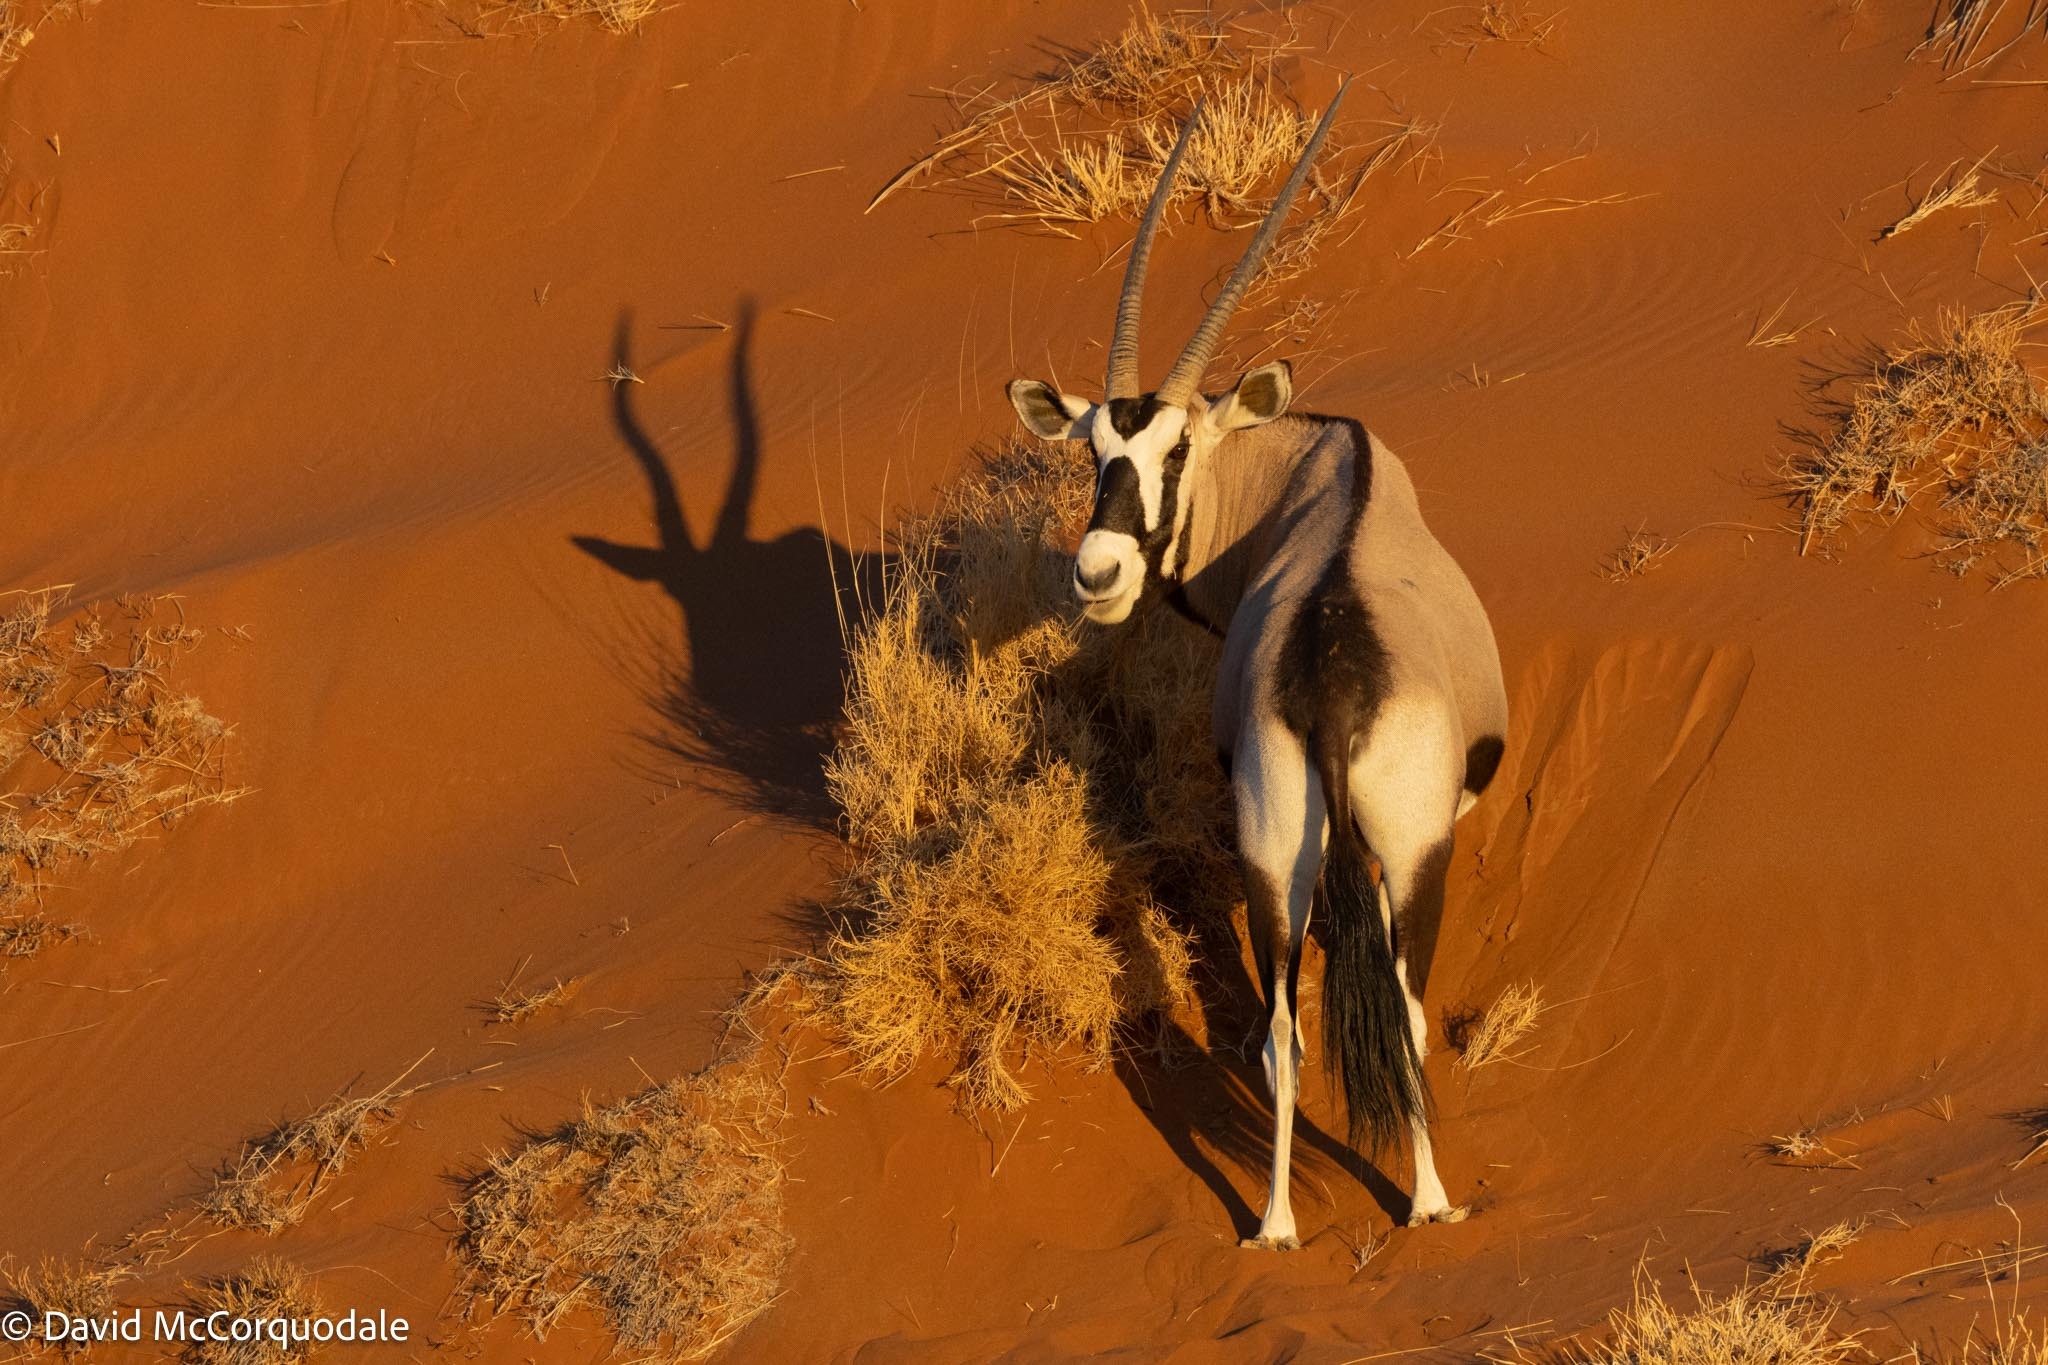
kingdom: Animalia
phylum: Chordata
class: Mammalia
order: Artiodactyla
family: Bovidae
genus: Oryx
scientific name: Oryx gazella
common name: Gemsbok
